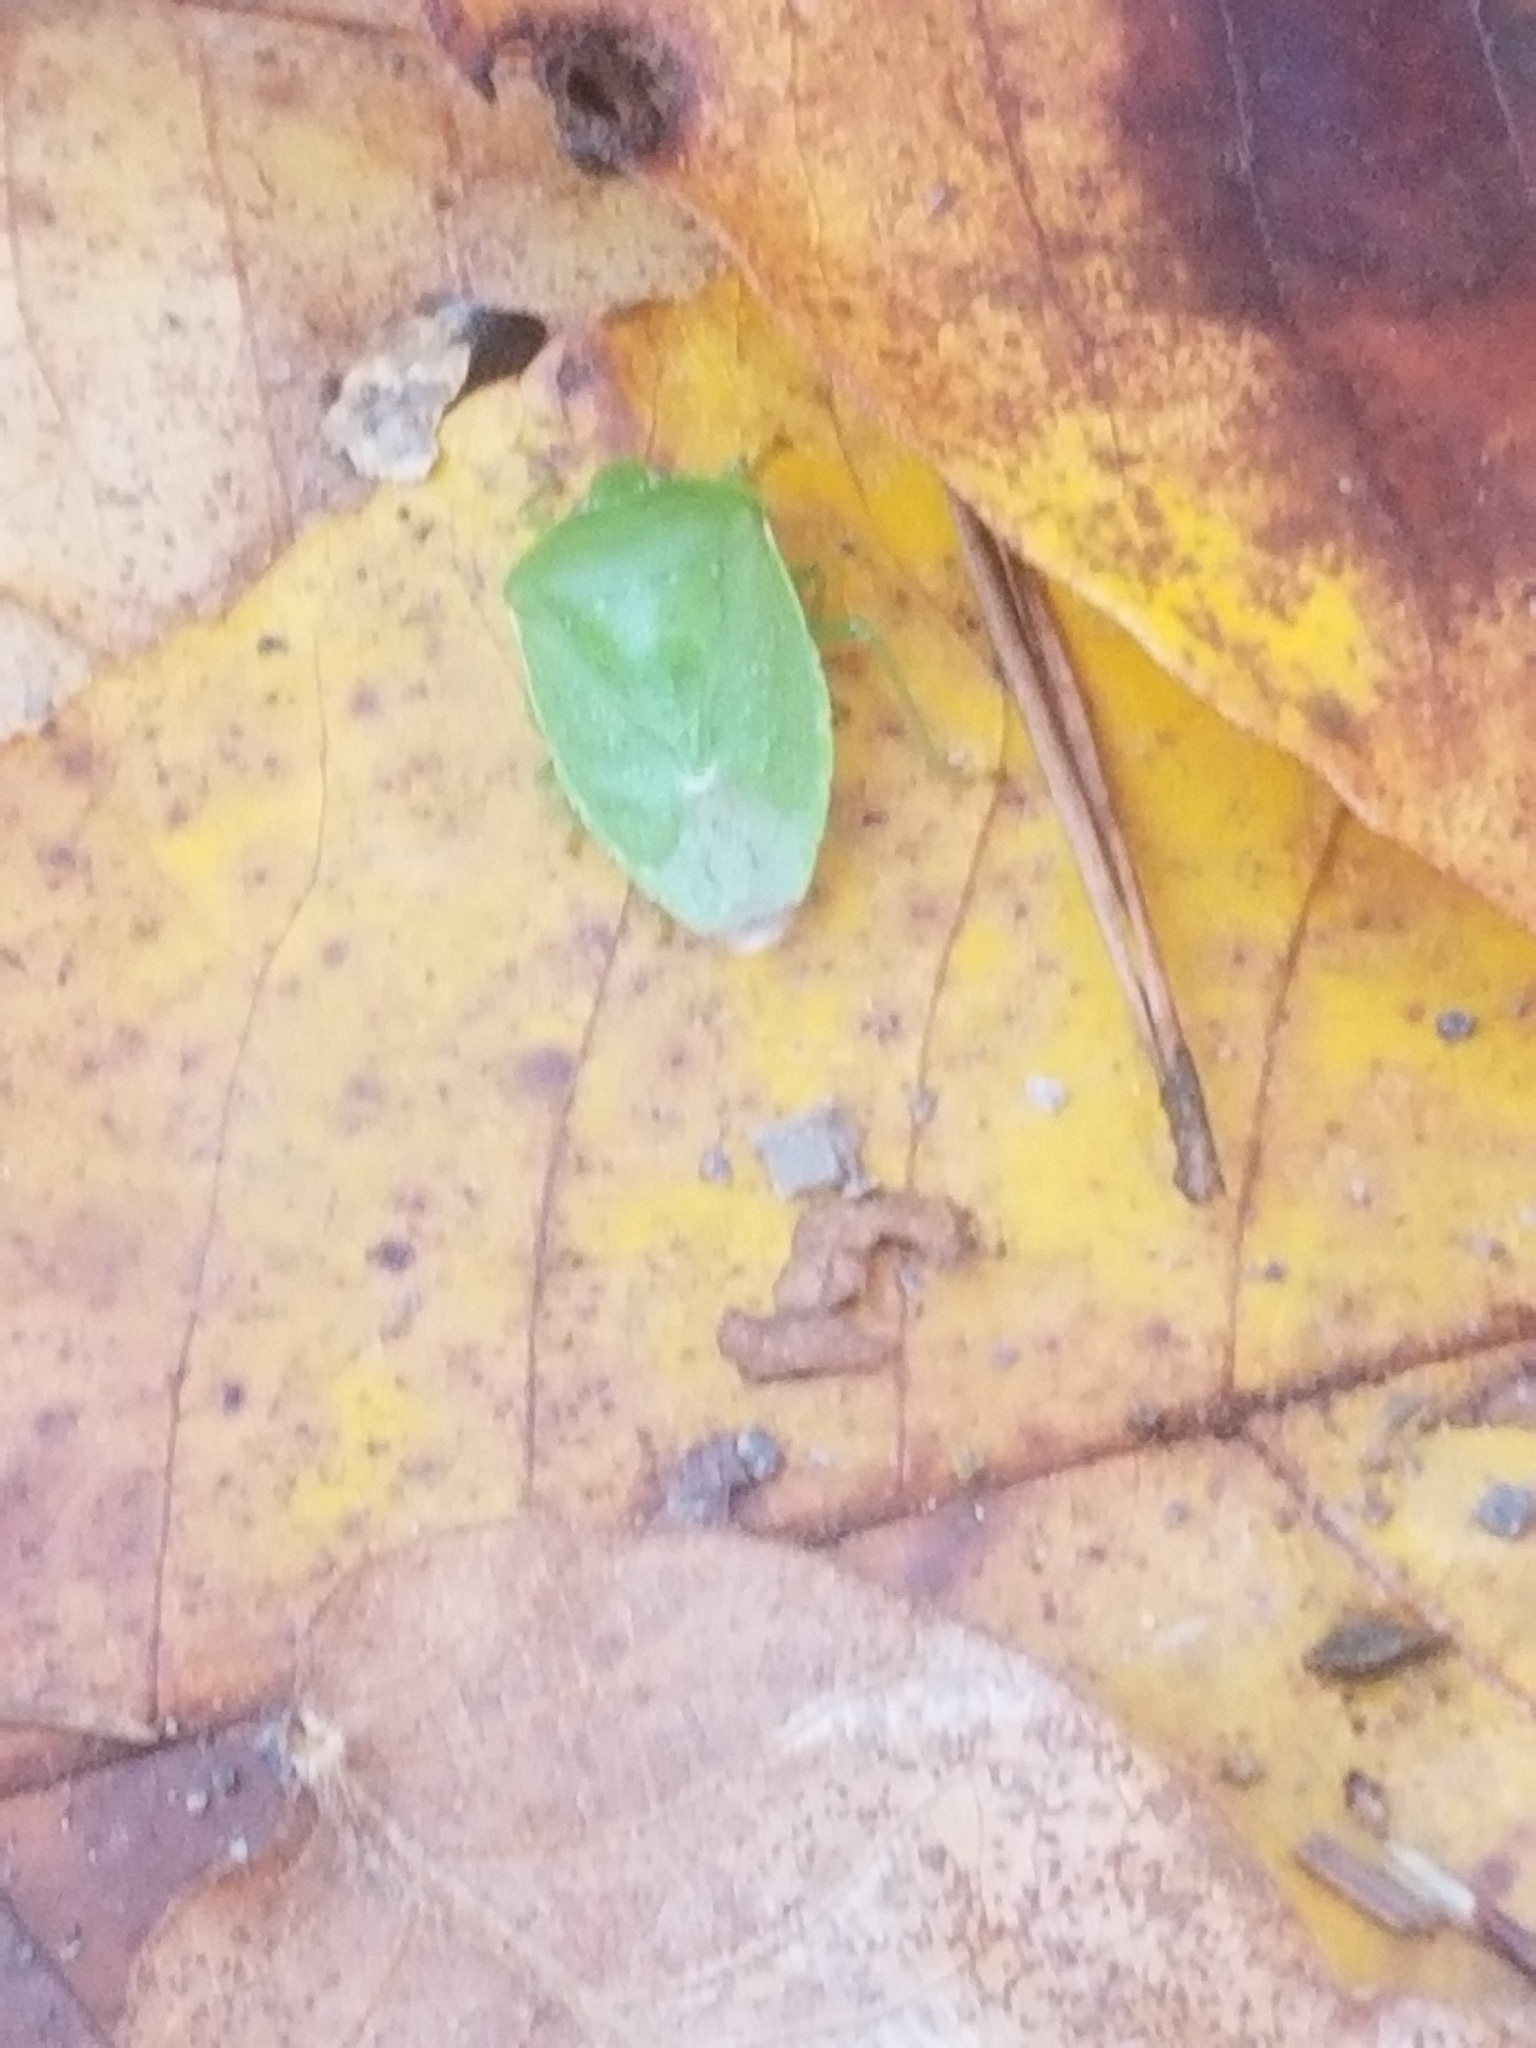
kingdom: Animalia
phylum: Arthropoda
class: Insecta
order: Hemiptera
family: Pentatomidae
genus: Chinavia
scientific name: Chinavia hilaris
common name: Green stink bug
